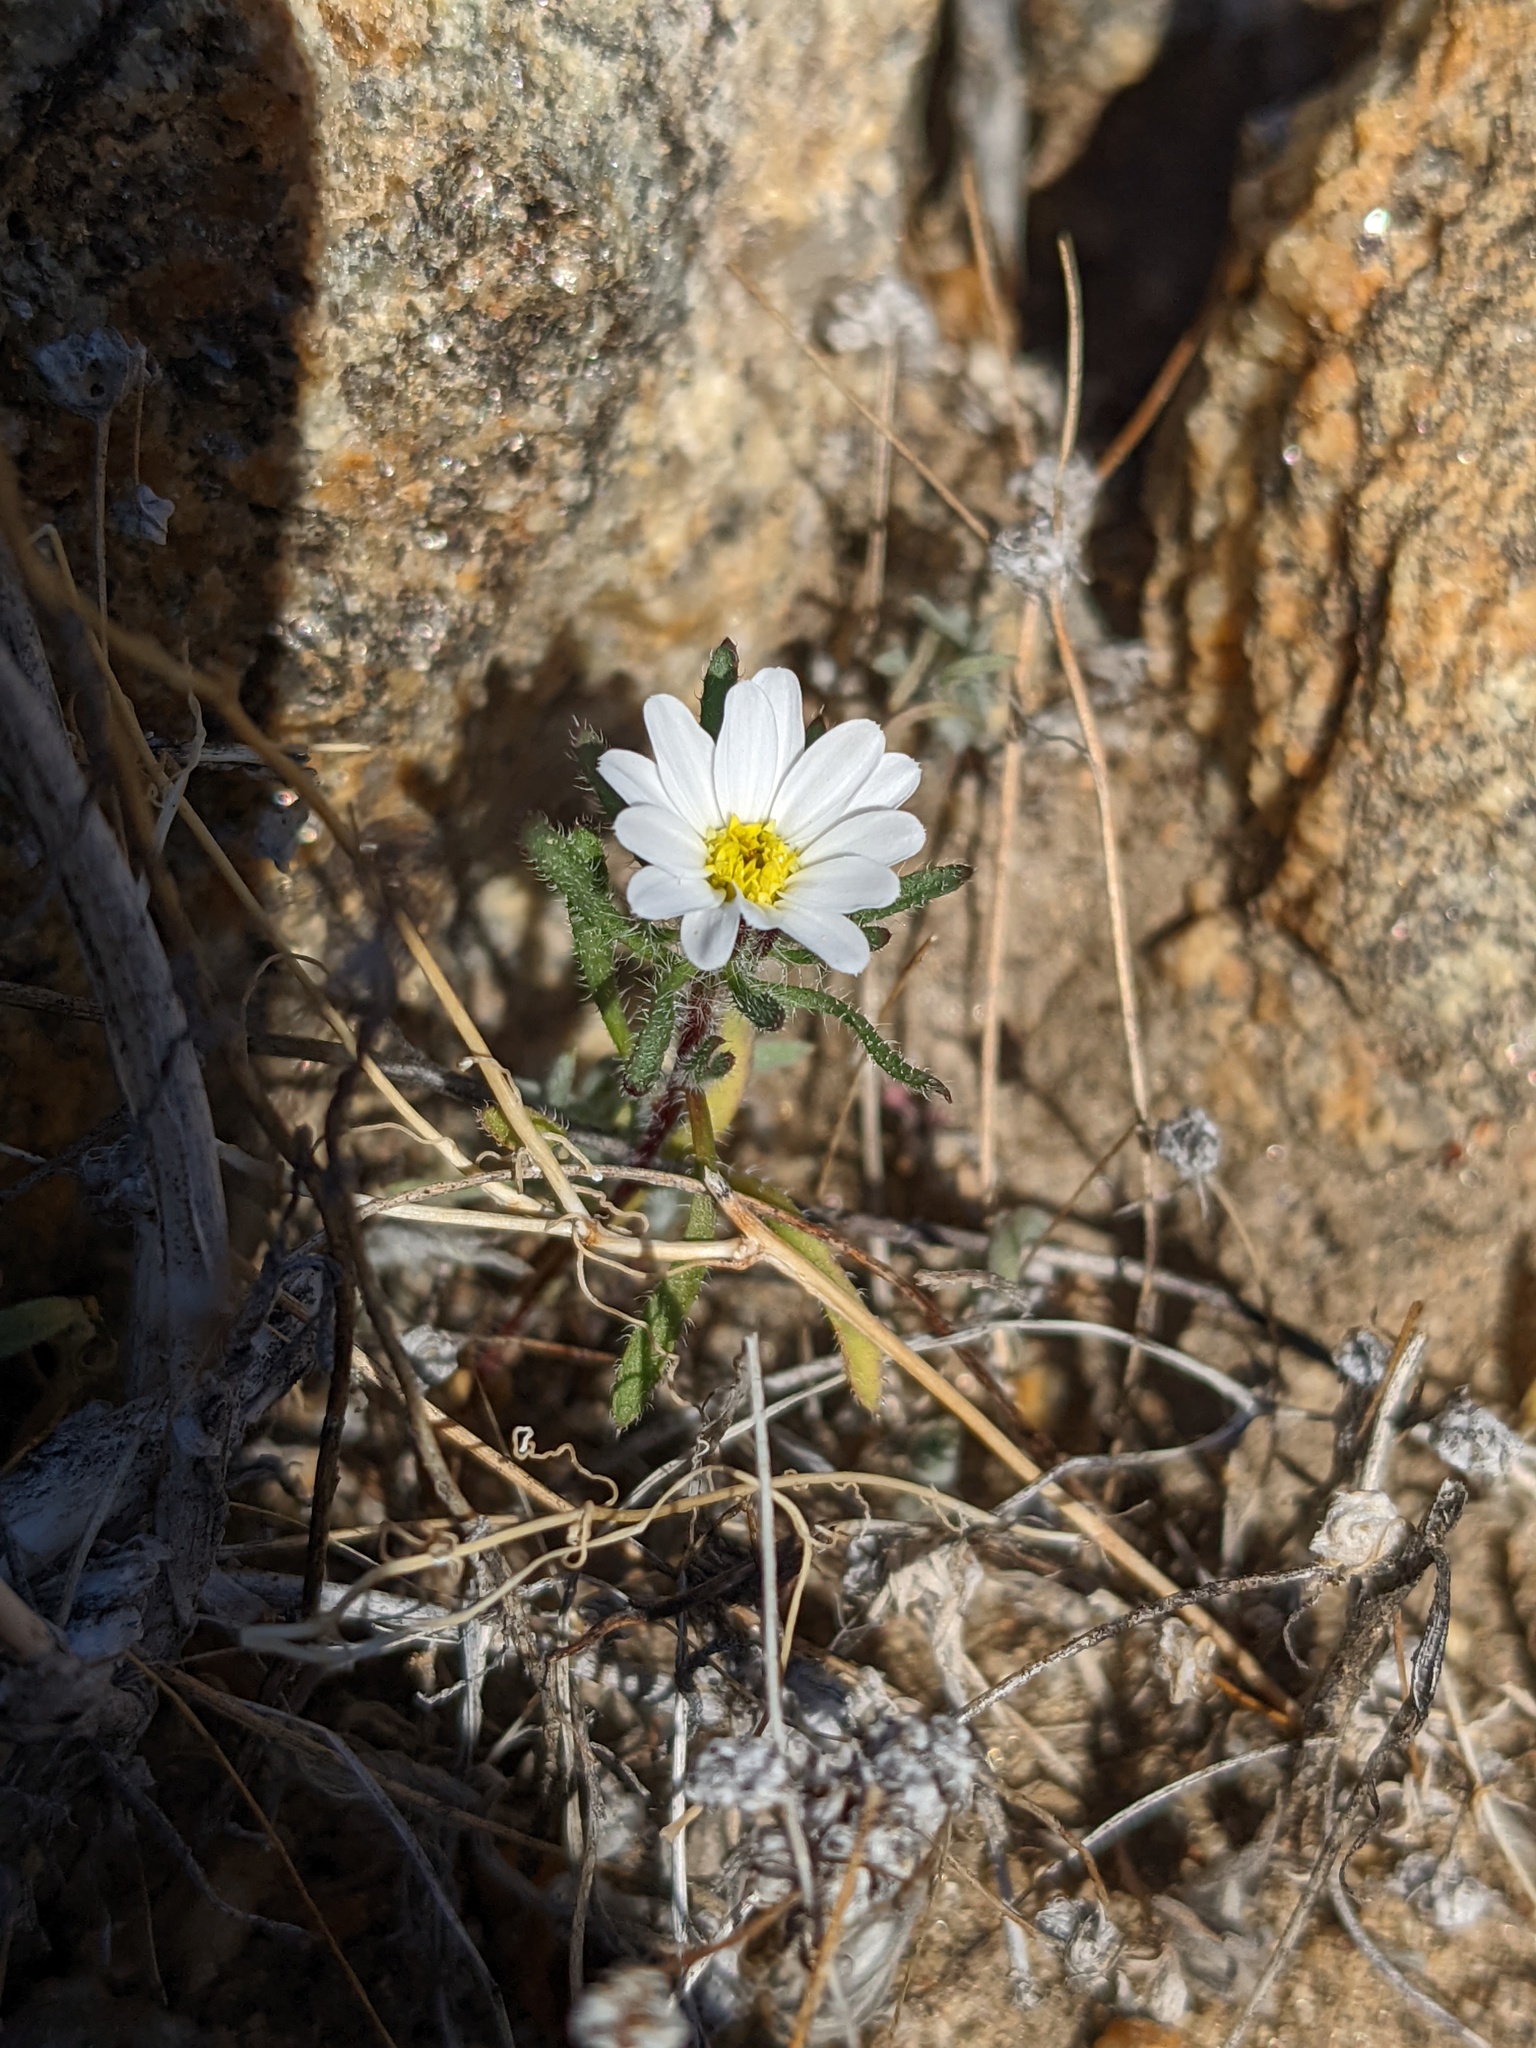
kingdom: Plantae
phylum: Tracheophyta
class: Magnoliopsida
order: Asterales
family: Asteraceae
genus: Monoptilon
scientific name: Monoptilon bellioides
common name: Bristly desertstar
